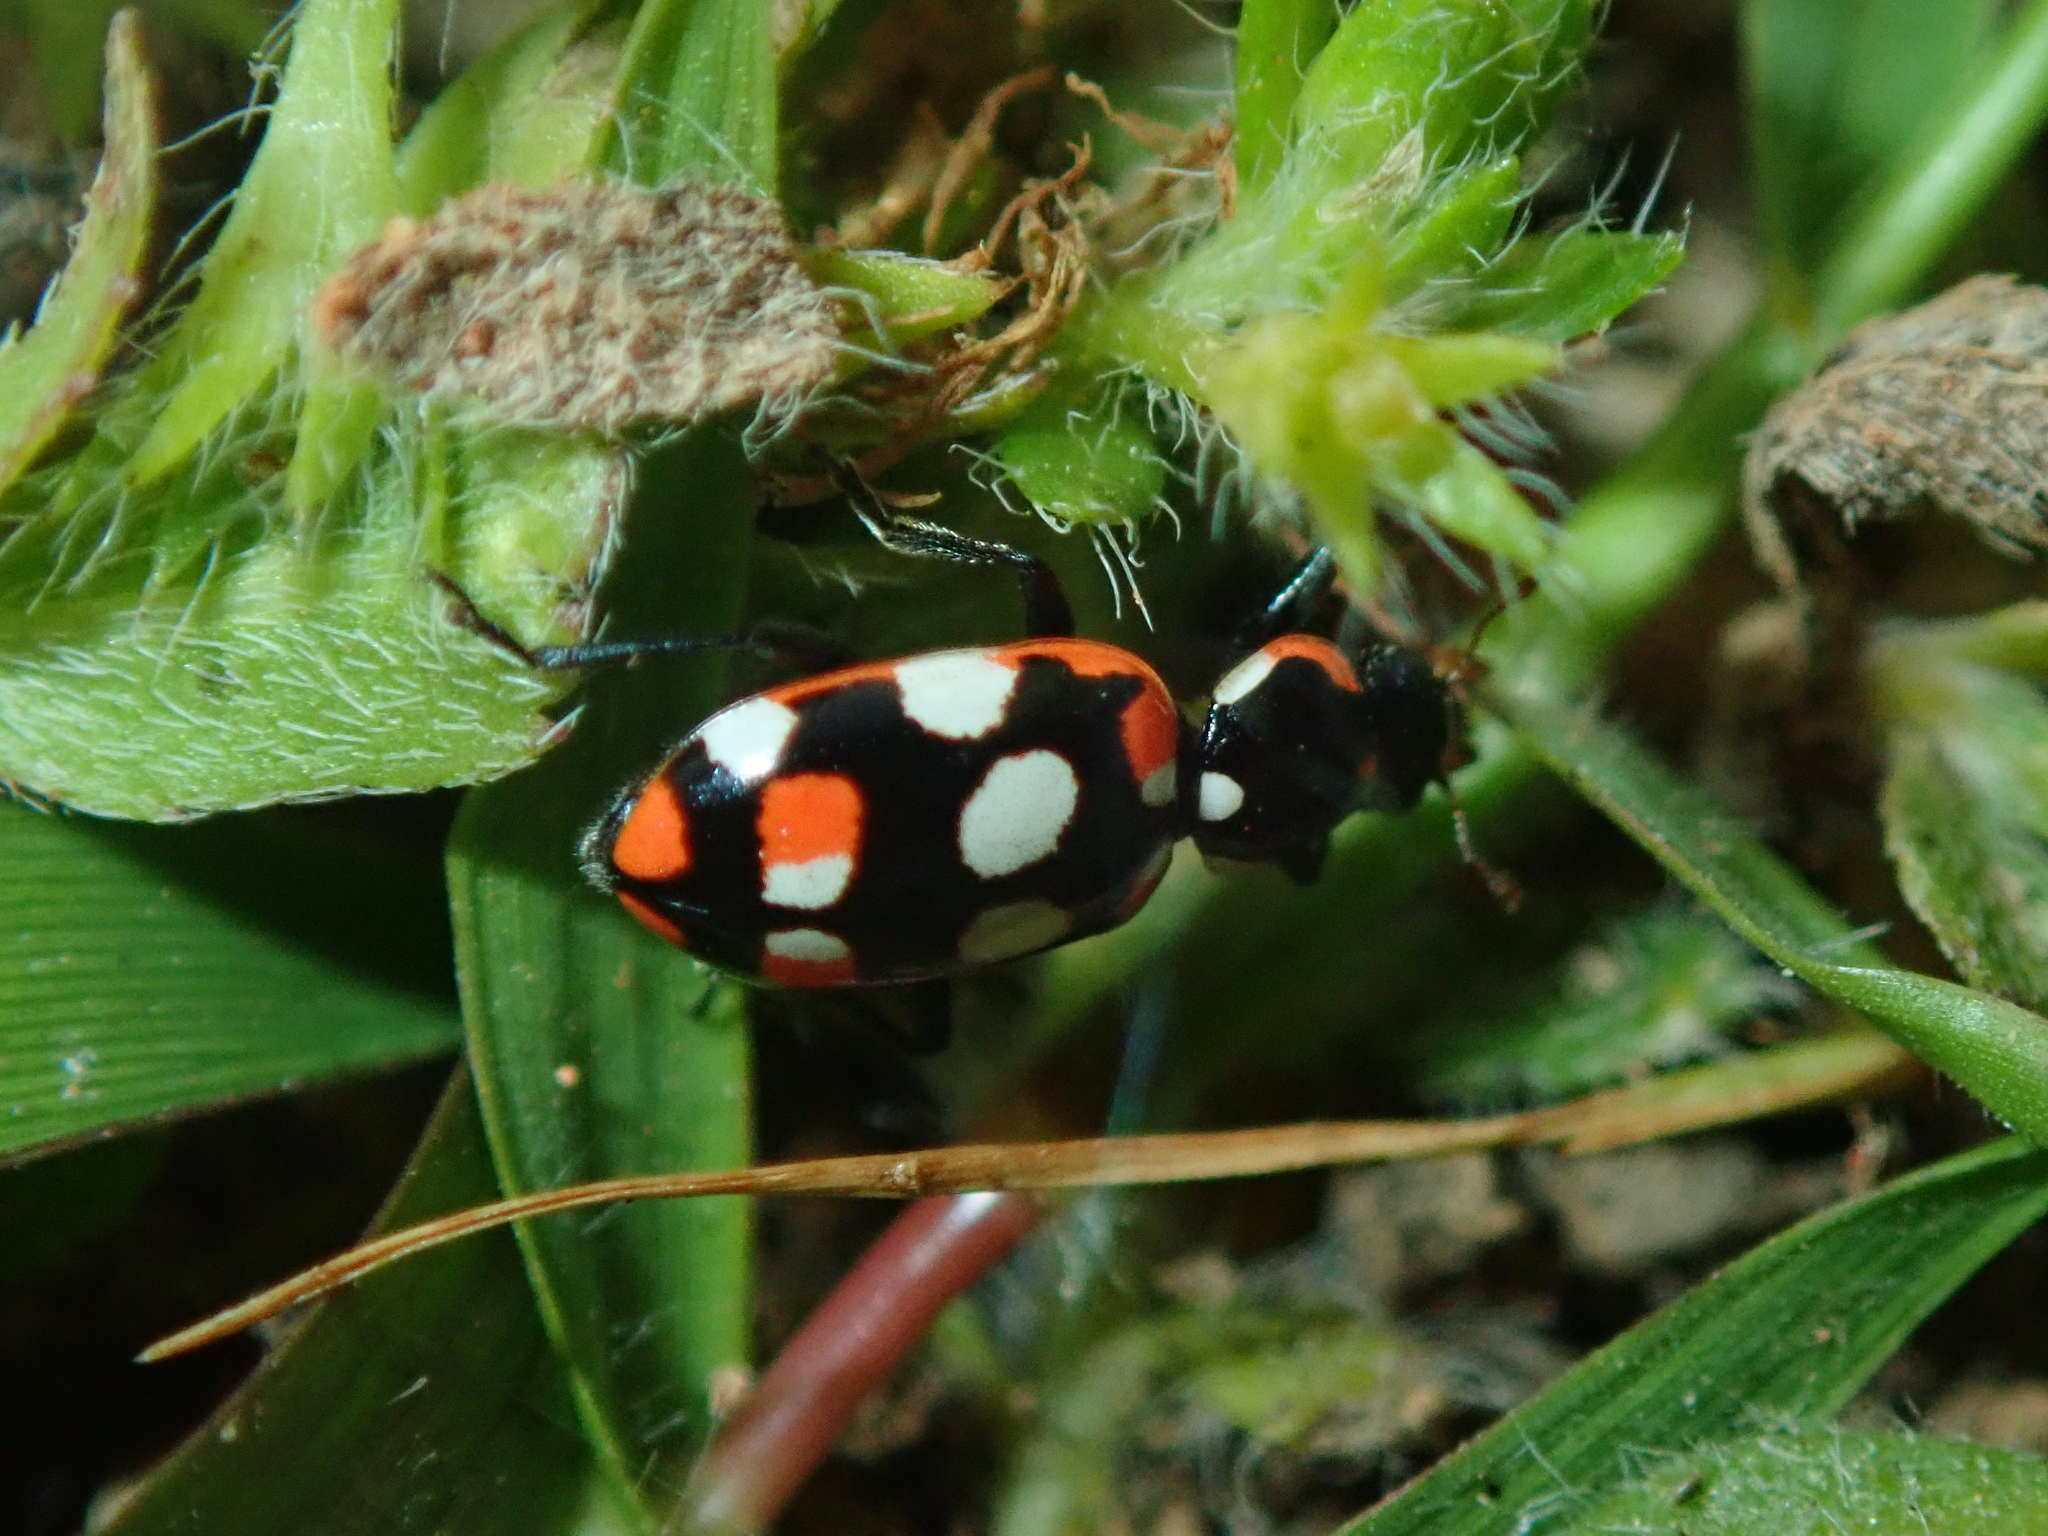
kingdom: Animalia
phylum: Arthropoda
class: Insecta
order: Coleoptera
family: Coccinellidae
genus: Eriopis
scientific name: Eriopis connexa
